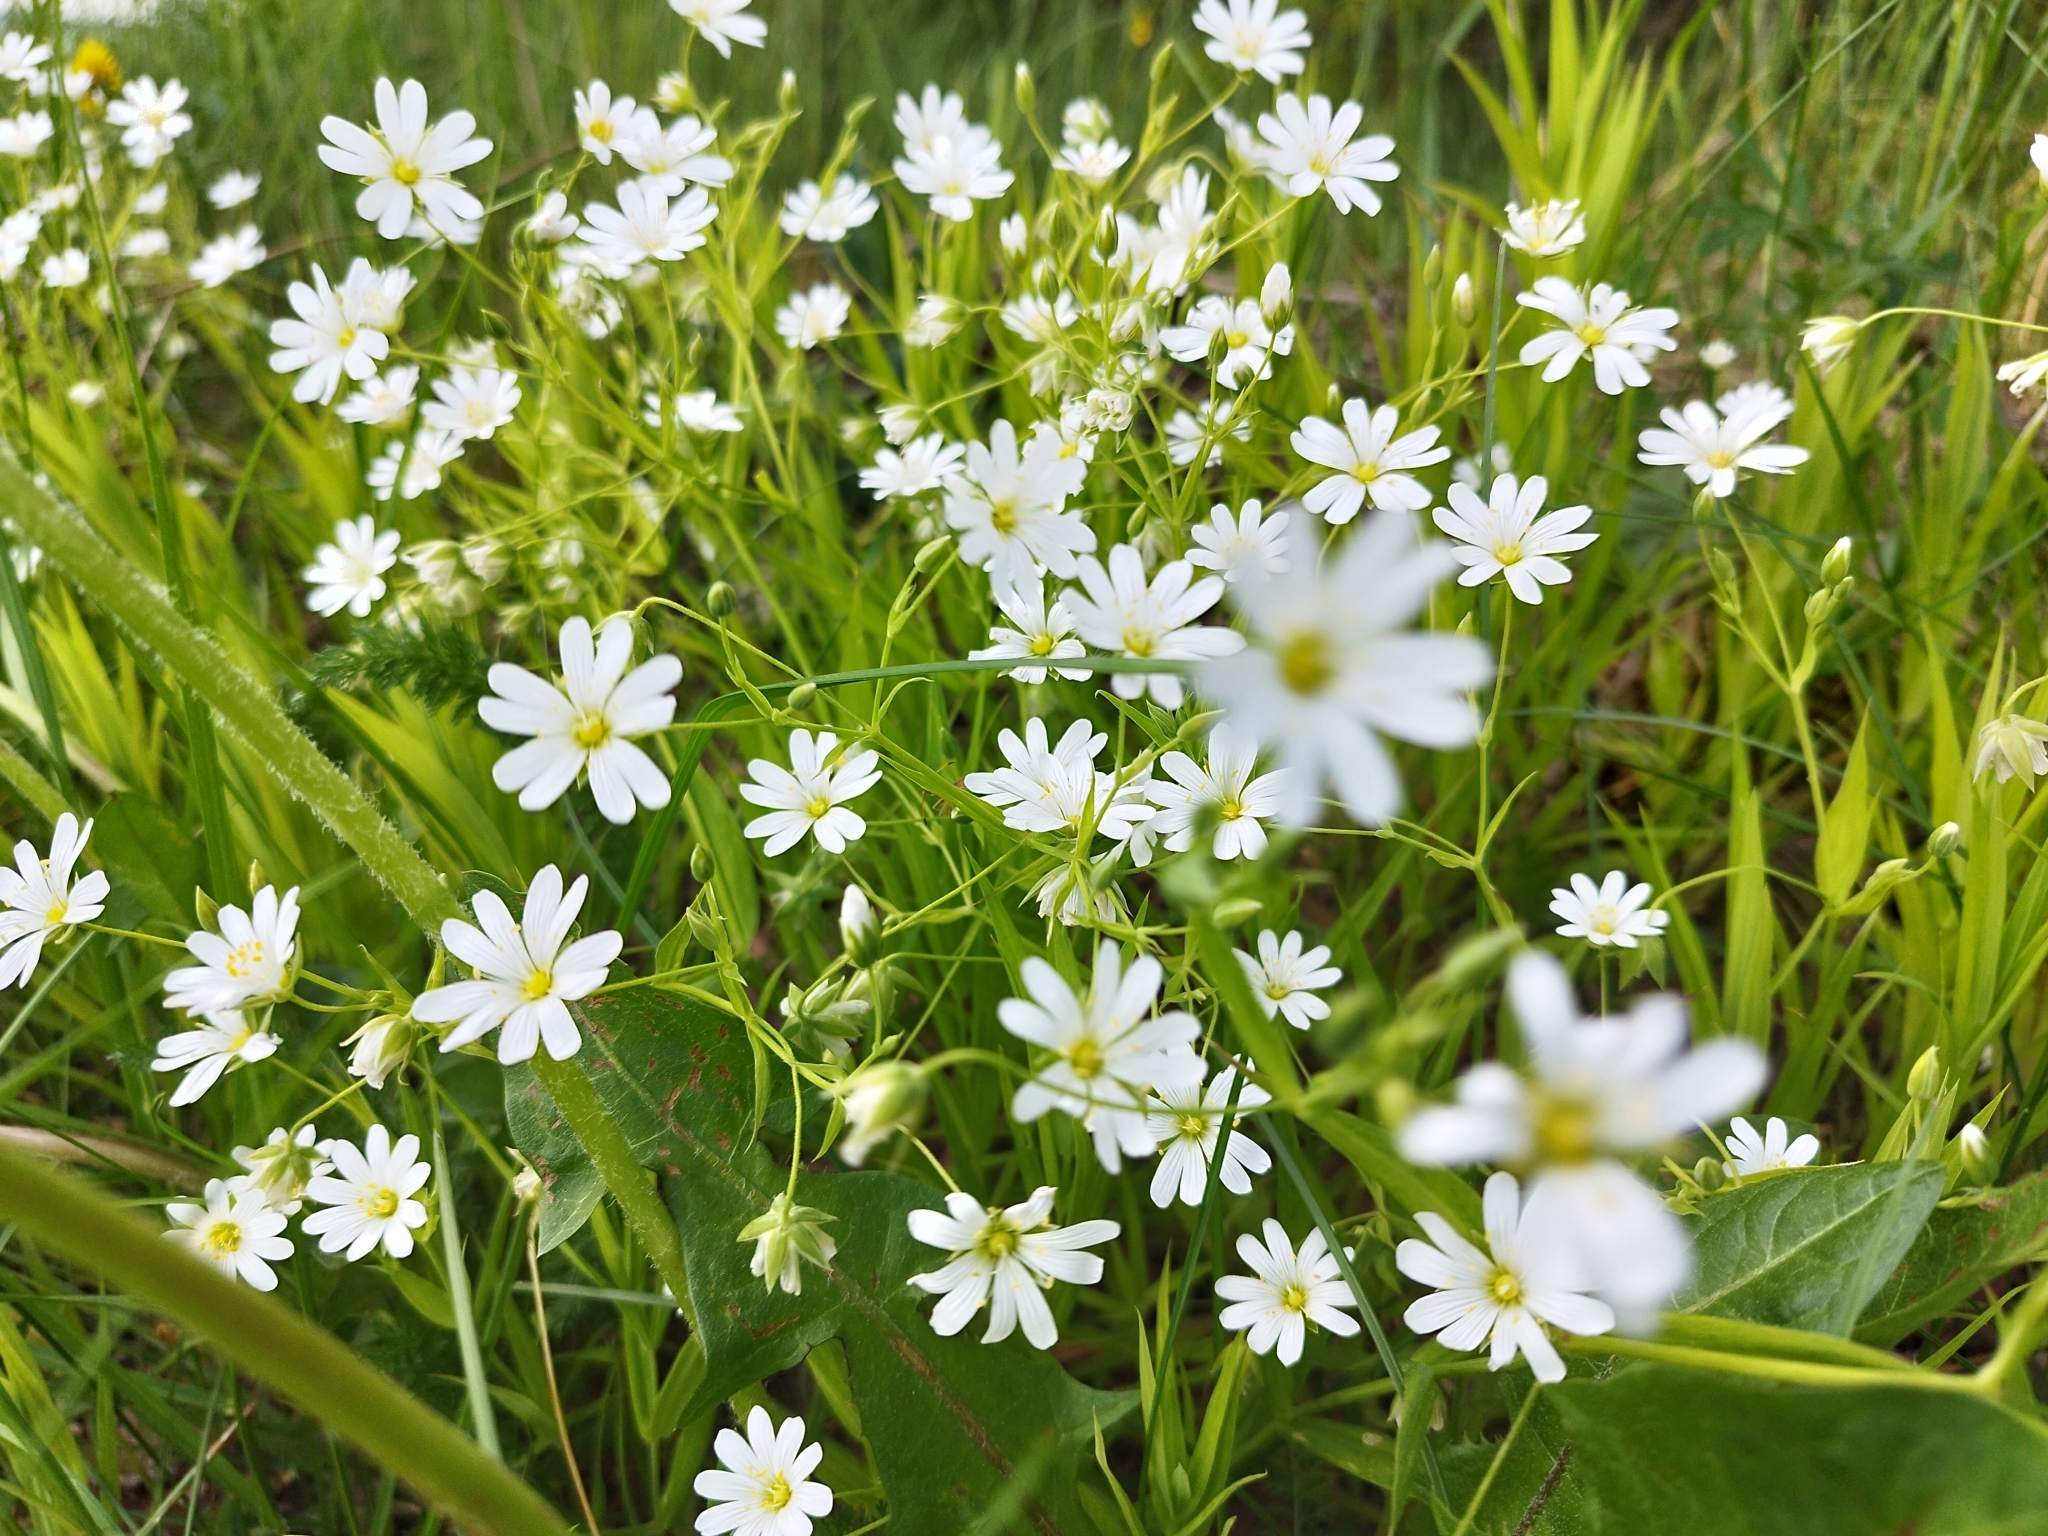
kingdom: Plantae
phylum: Tracheophyta
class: Magnoliopsida
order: Caryophyllales
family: Caryophyllaceae
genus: Rabelera
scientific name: Rabelera holostea
